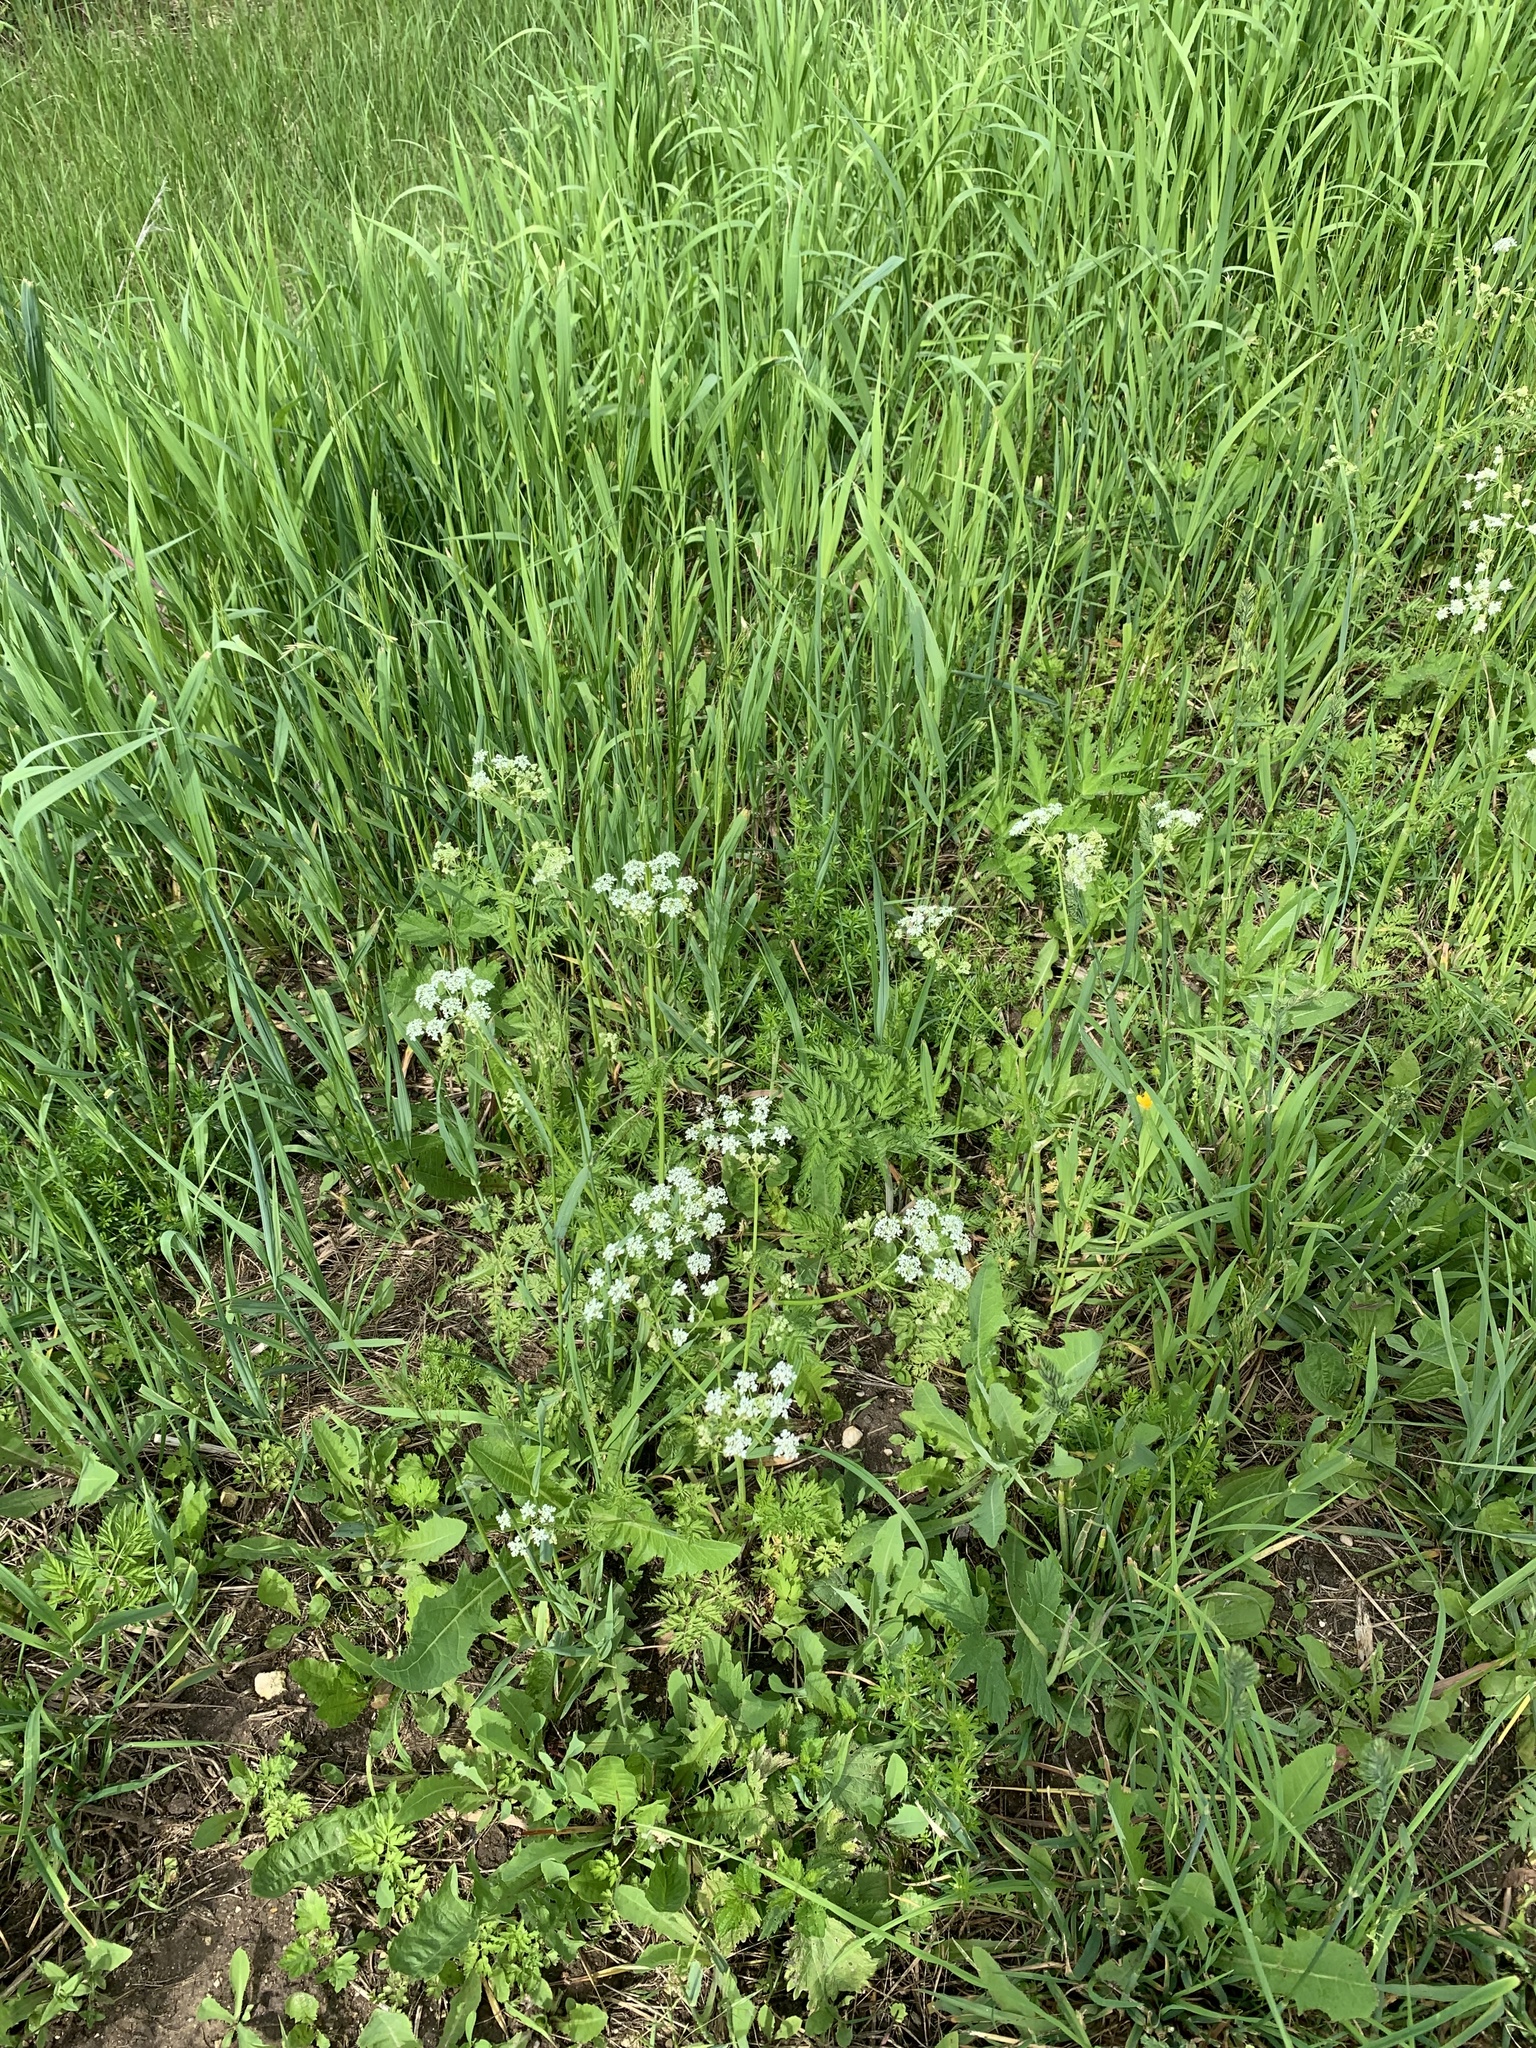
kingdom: Plantae
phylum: Tracheophyta
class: Magnoliopsida
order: Apiales
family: Apiaceae
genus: Anthriscus
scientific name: Anthriscus sylvestris
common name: Cow parsley
